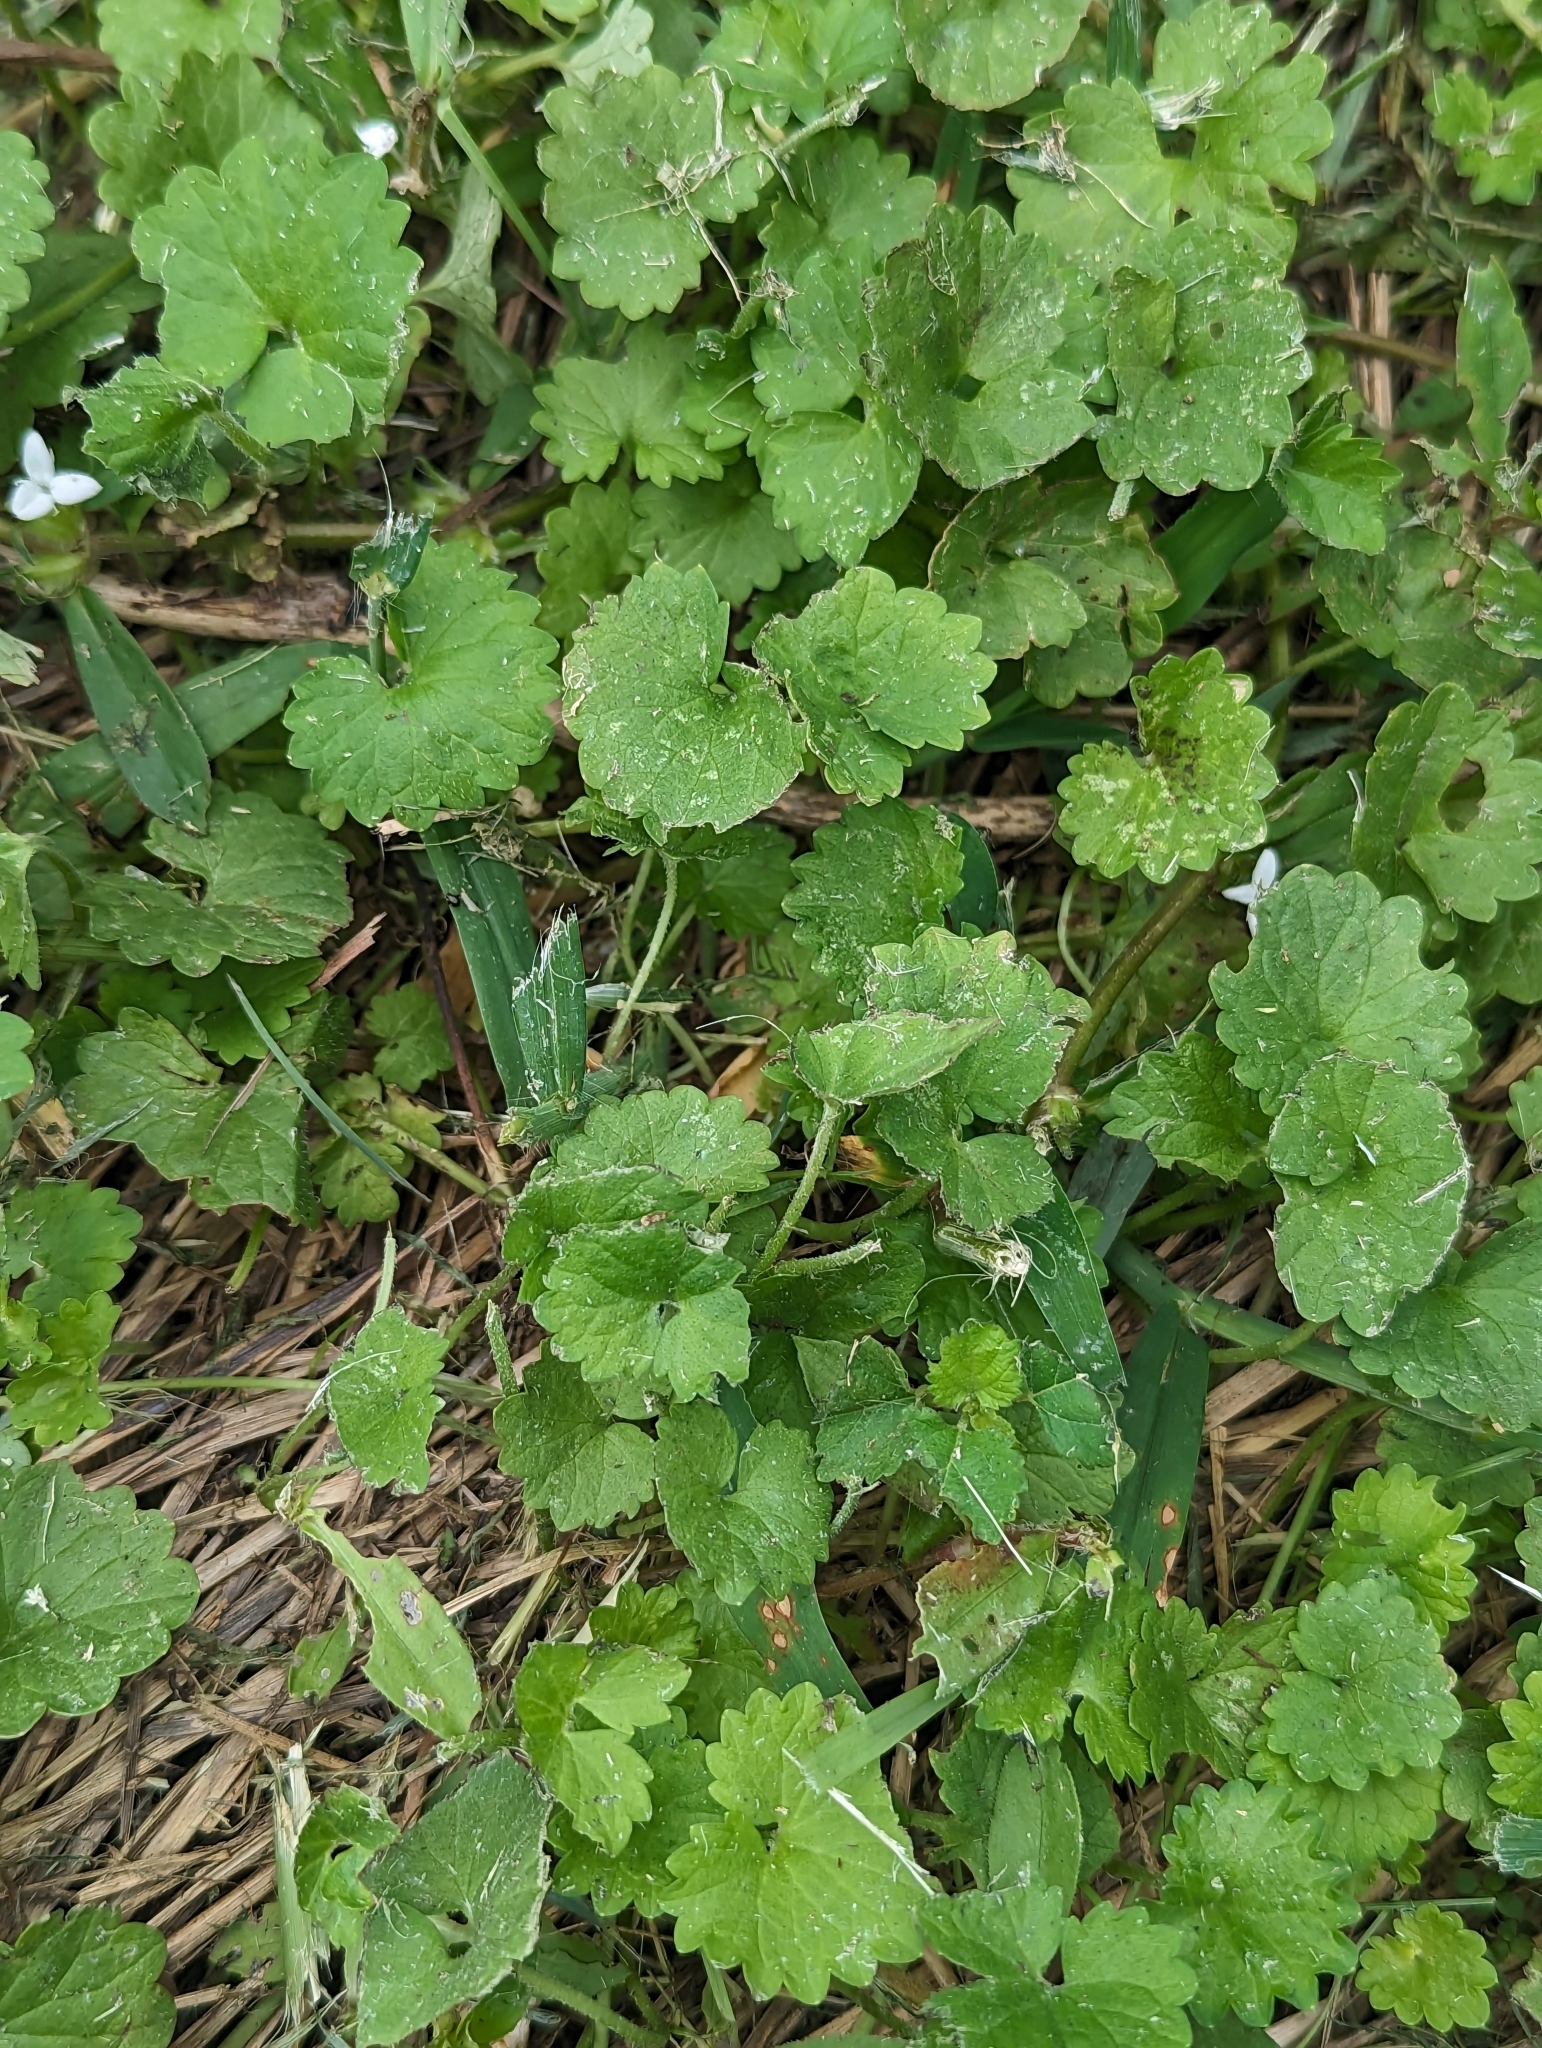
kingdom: Plantae
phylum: Tracheophyta
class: Magnoliopsida
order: Lamiales
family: Lamiaceae
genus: Glechoma
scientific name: Glechoma hederacea
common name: Ground ivy
